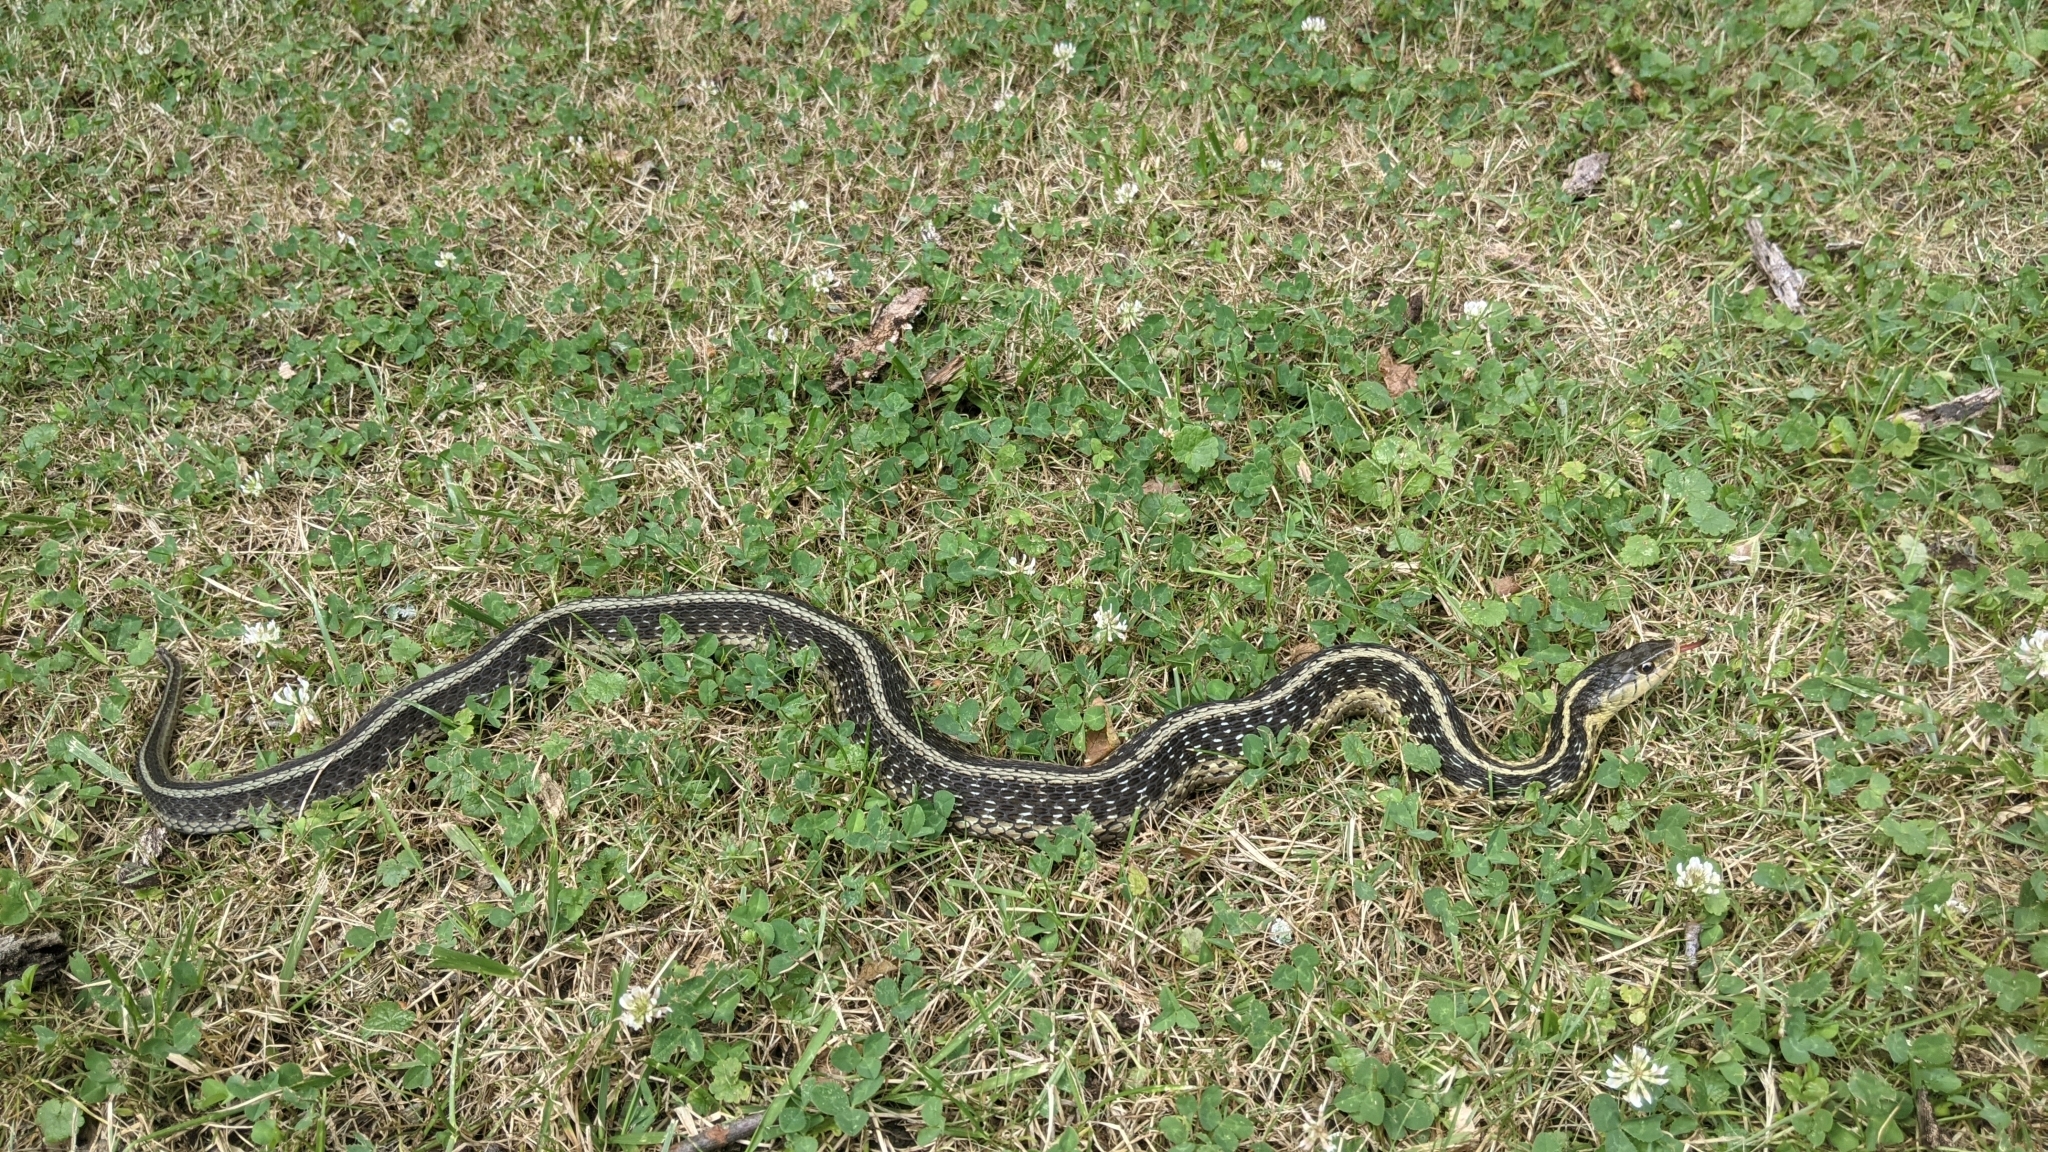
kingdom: Animalia
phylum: Chordata
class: Squamata
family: Colubridae
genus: Thamnophis
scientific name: Thamnophis sirtalis
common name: Common garter snake
